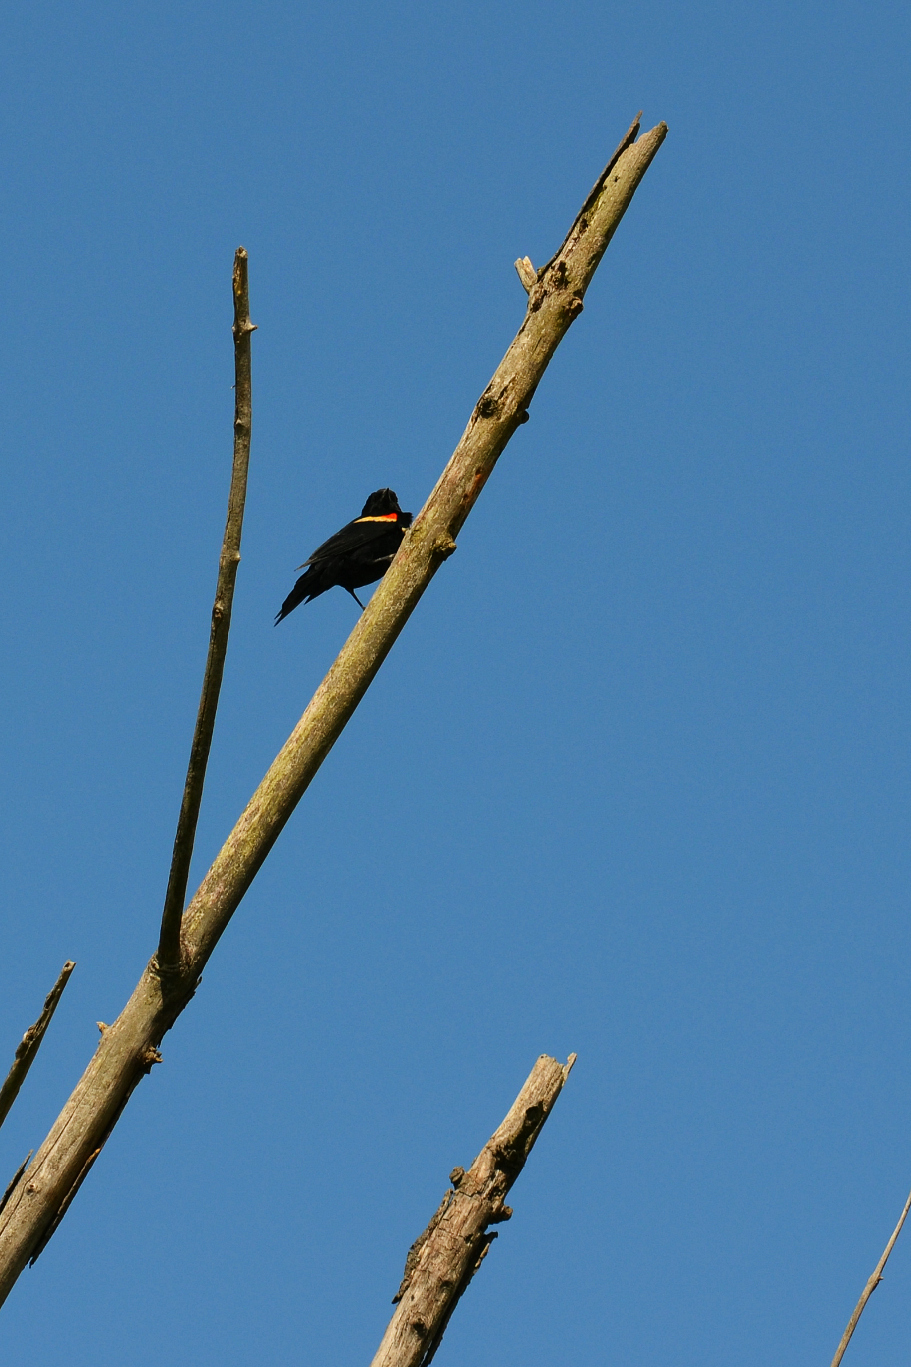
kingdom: Animalia
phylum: Chordata
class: Aves
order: Passeriformes
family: Icteridae
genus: Agelaius
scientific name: Agelaius phoeniceus
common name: Red-winged blackbird
